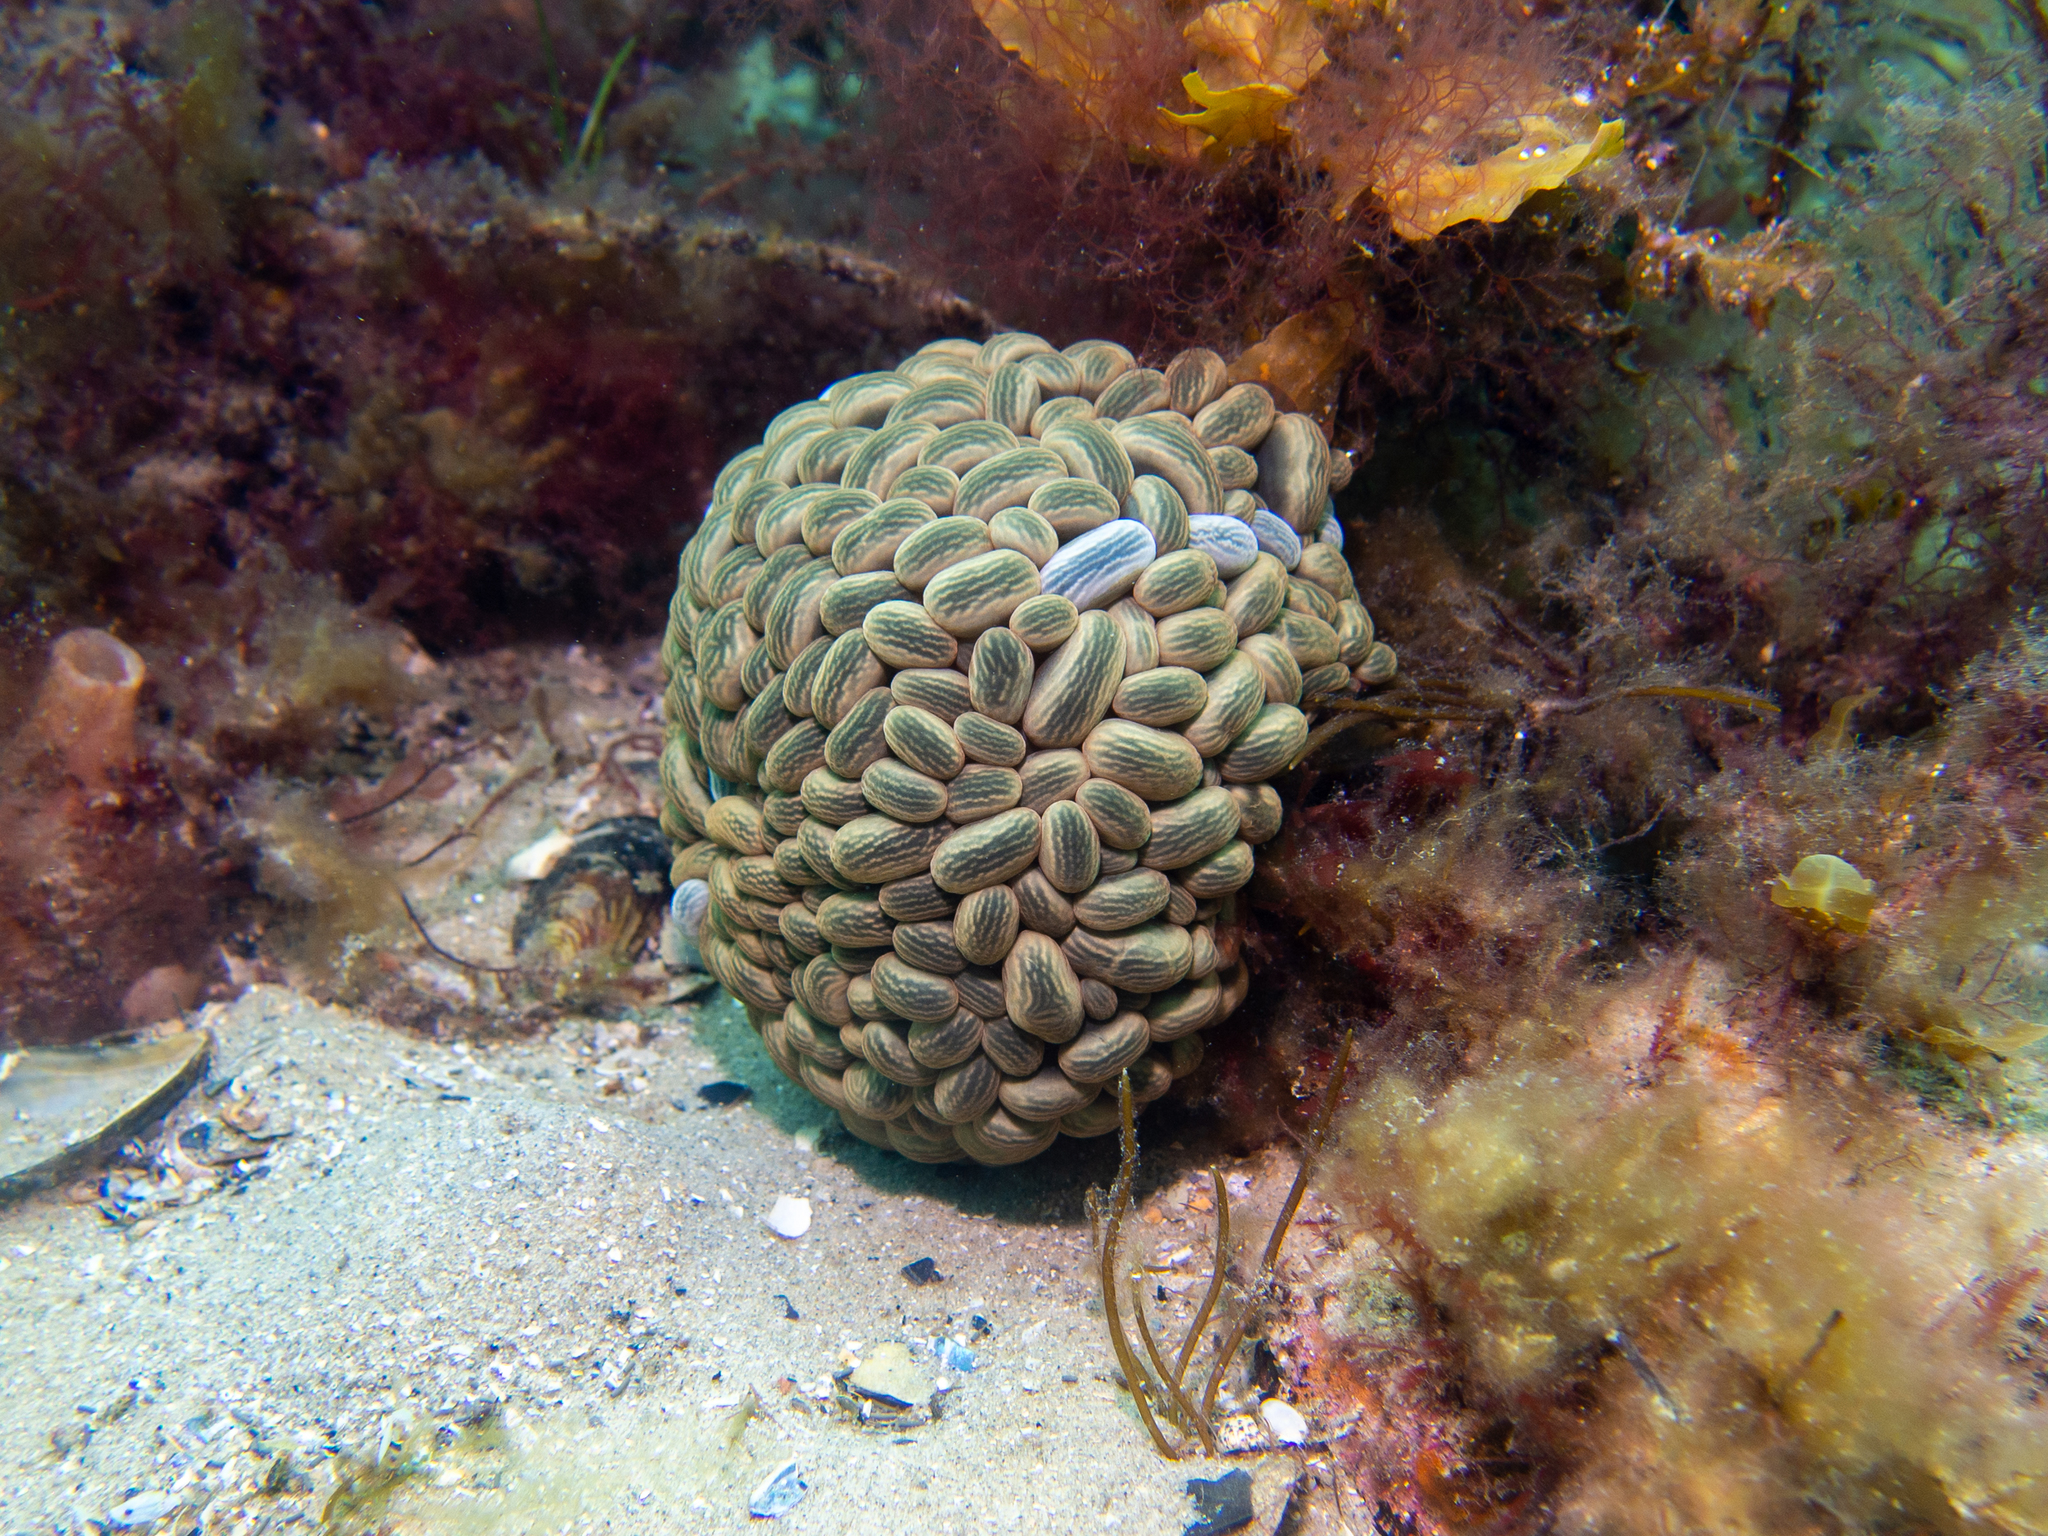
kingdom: Animalia
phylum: Cnidaria
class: Anthozoa
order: Actiniaria
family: Actiniidae
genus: Phlyctenactis
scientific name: Phlyctenactis tuberculosa
